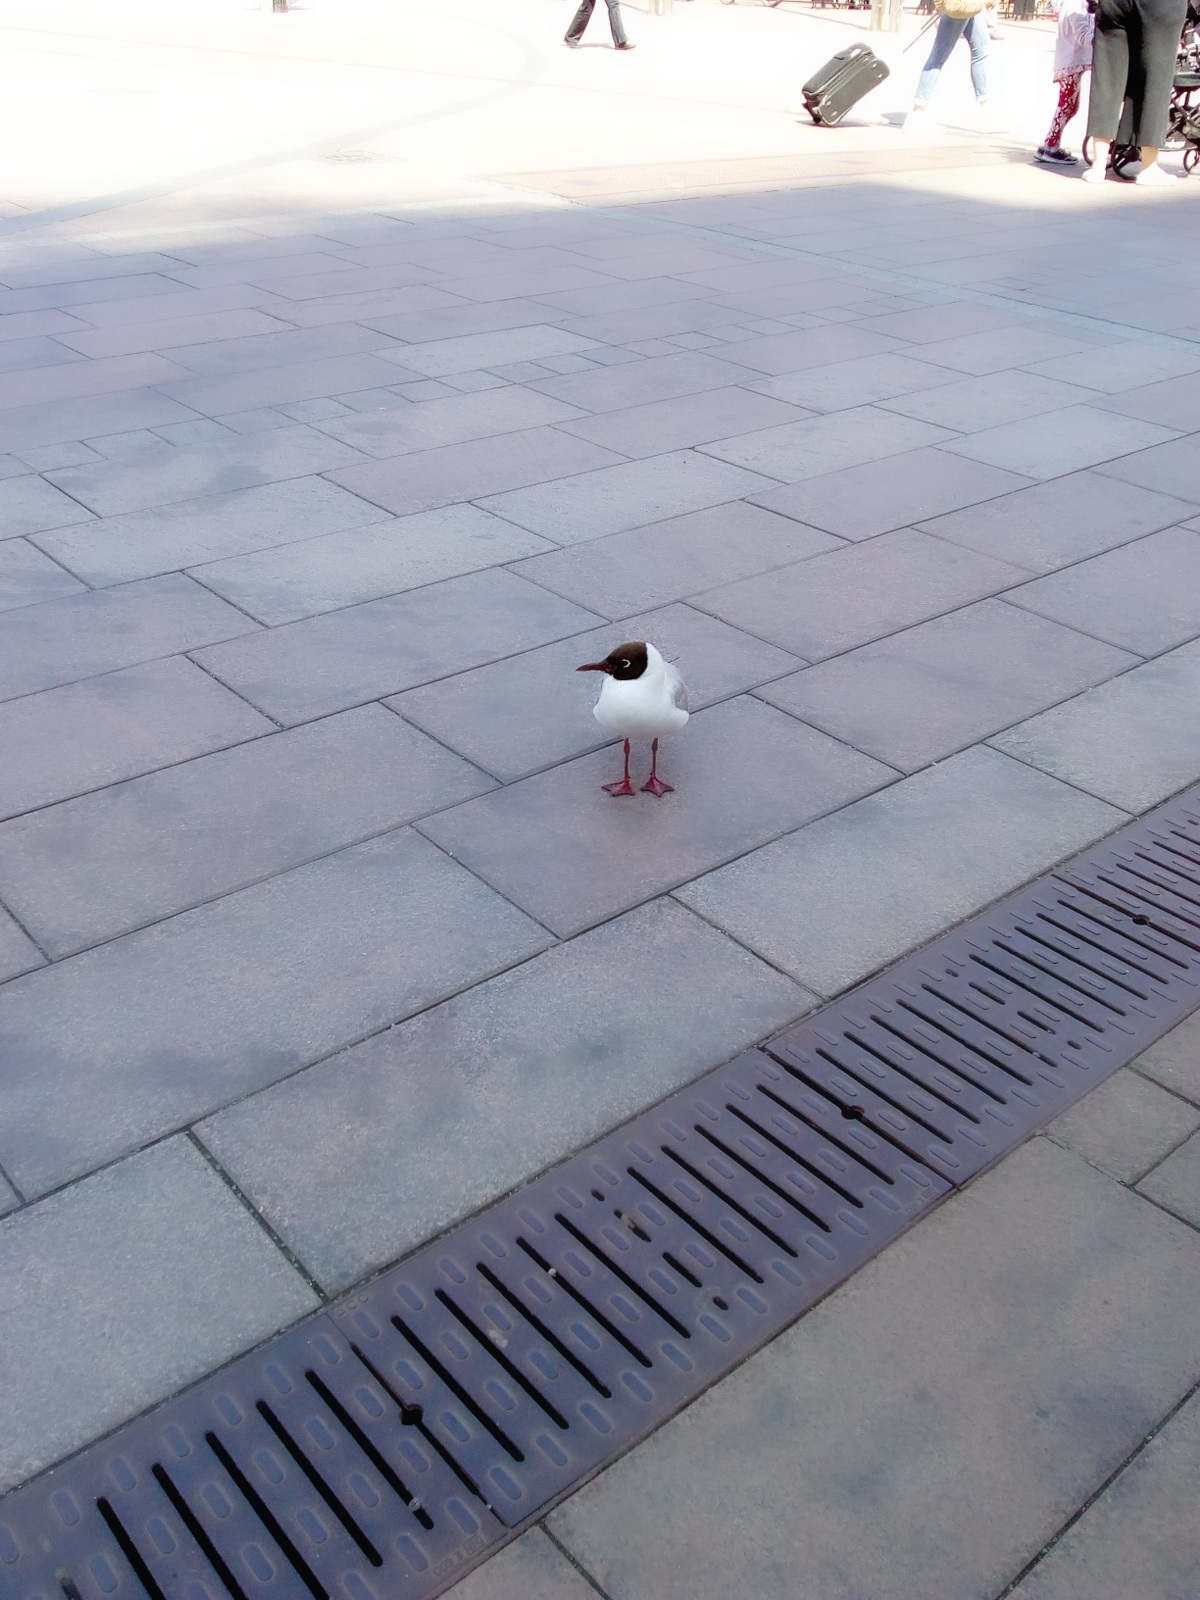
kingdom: Animalia
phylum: Chordata
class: Aves
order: Charadriiformes
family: Laridae
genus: Chroicocephalus
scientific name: Chroicocephalus ridibundus
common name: Black-headed gull
